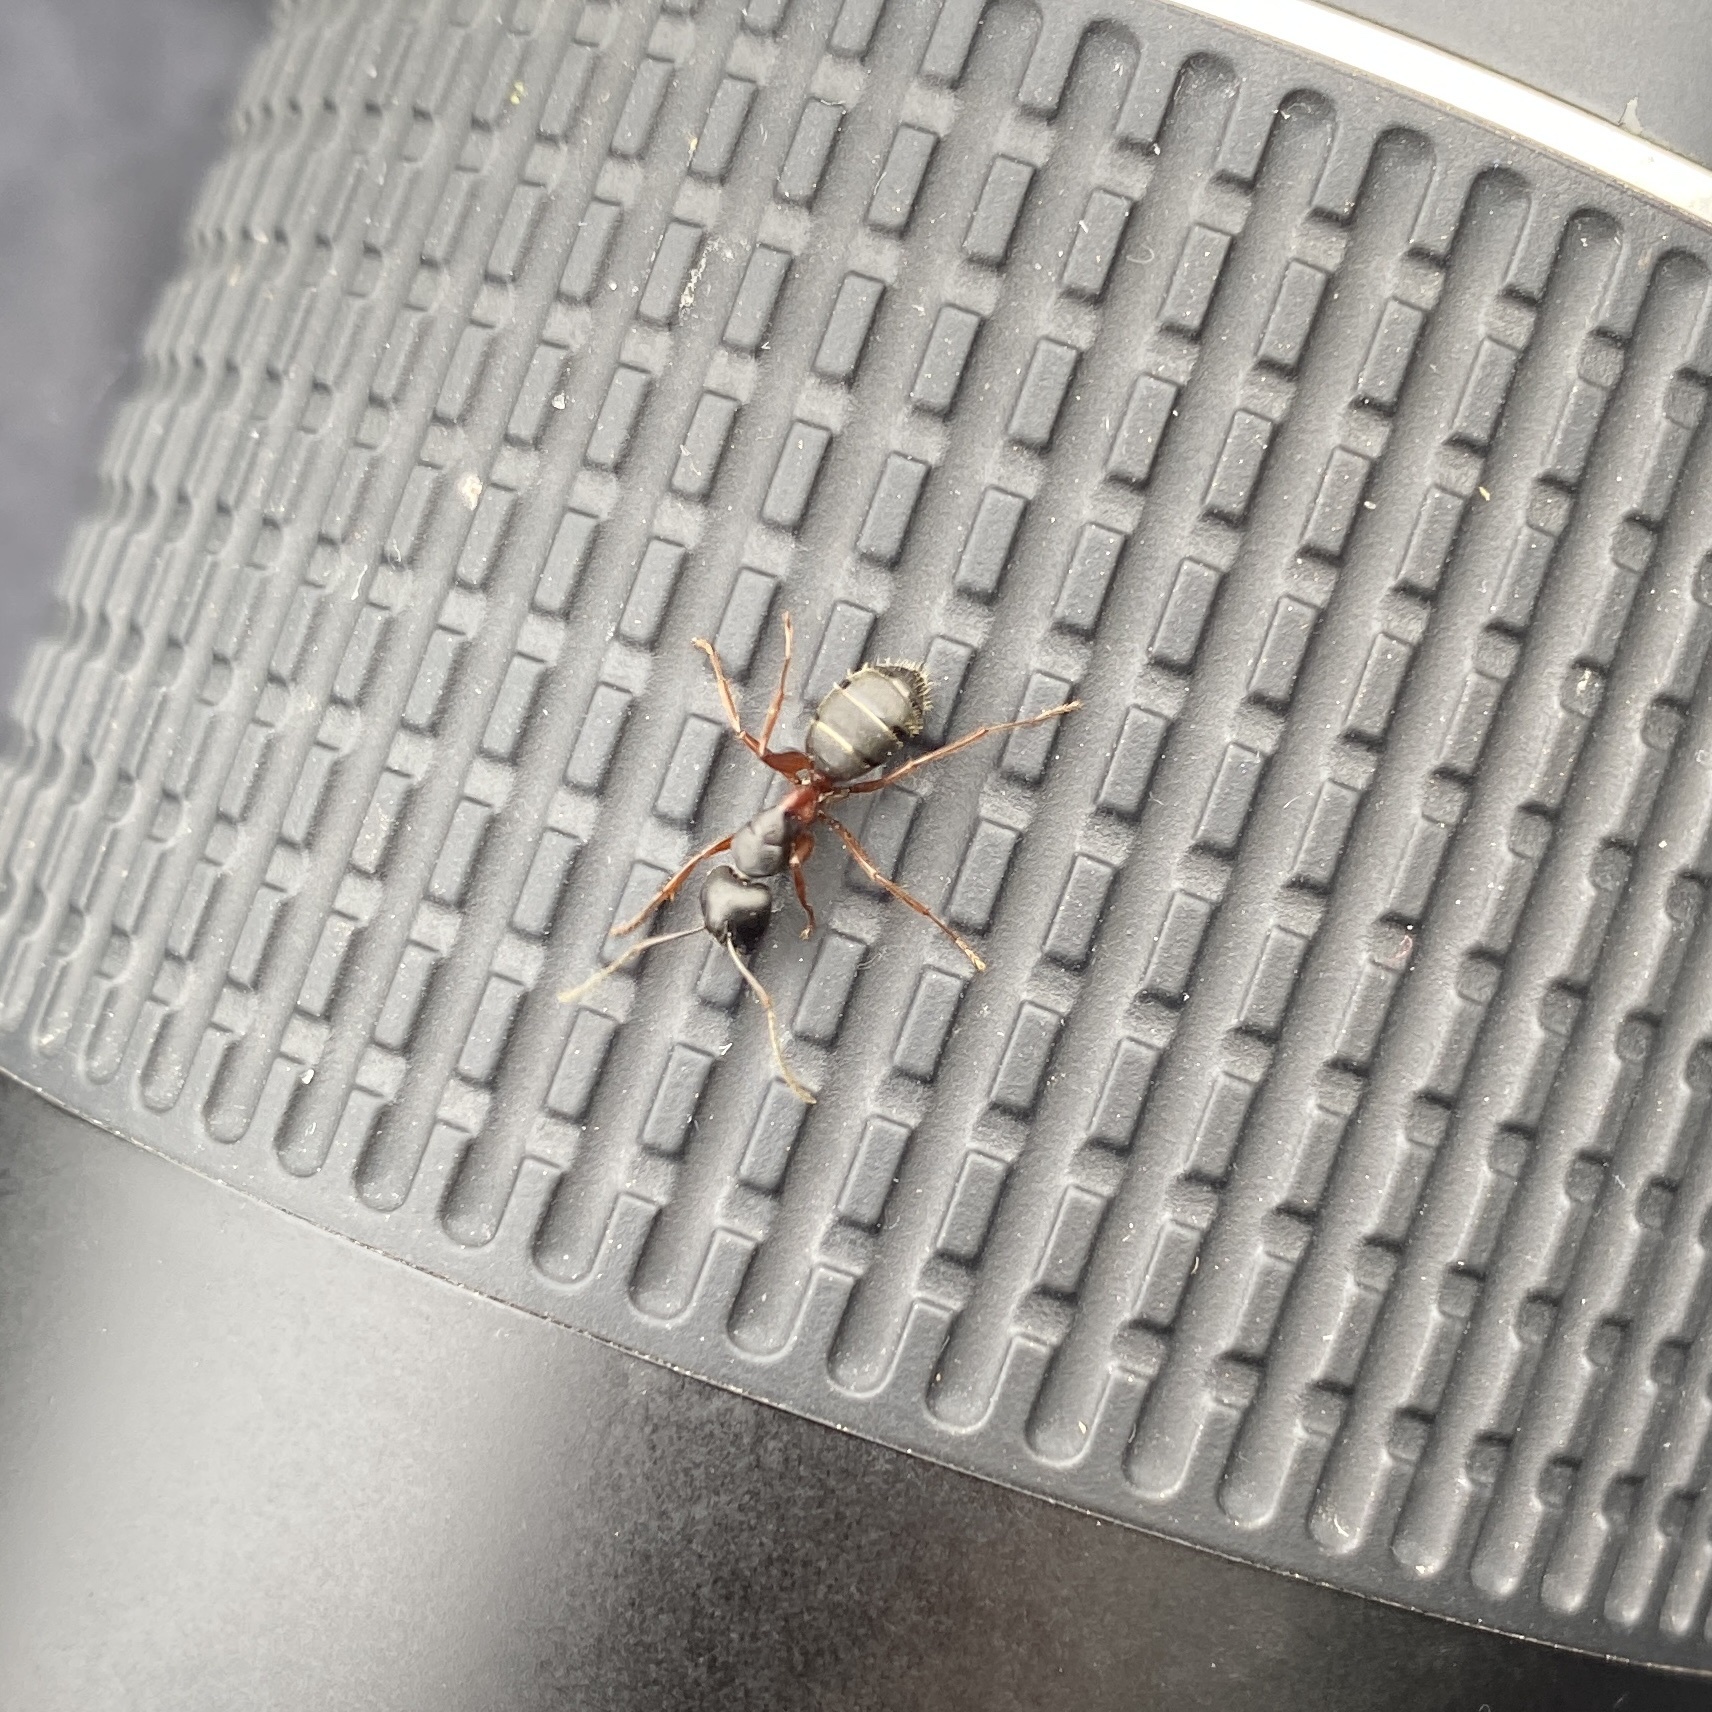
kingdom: Animalia
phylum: Arthropoda
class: Insecta
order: Hymenoptera
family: Formicidae
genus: Camponotus
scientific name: Camponotus herculeanus
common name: Hercules ant
